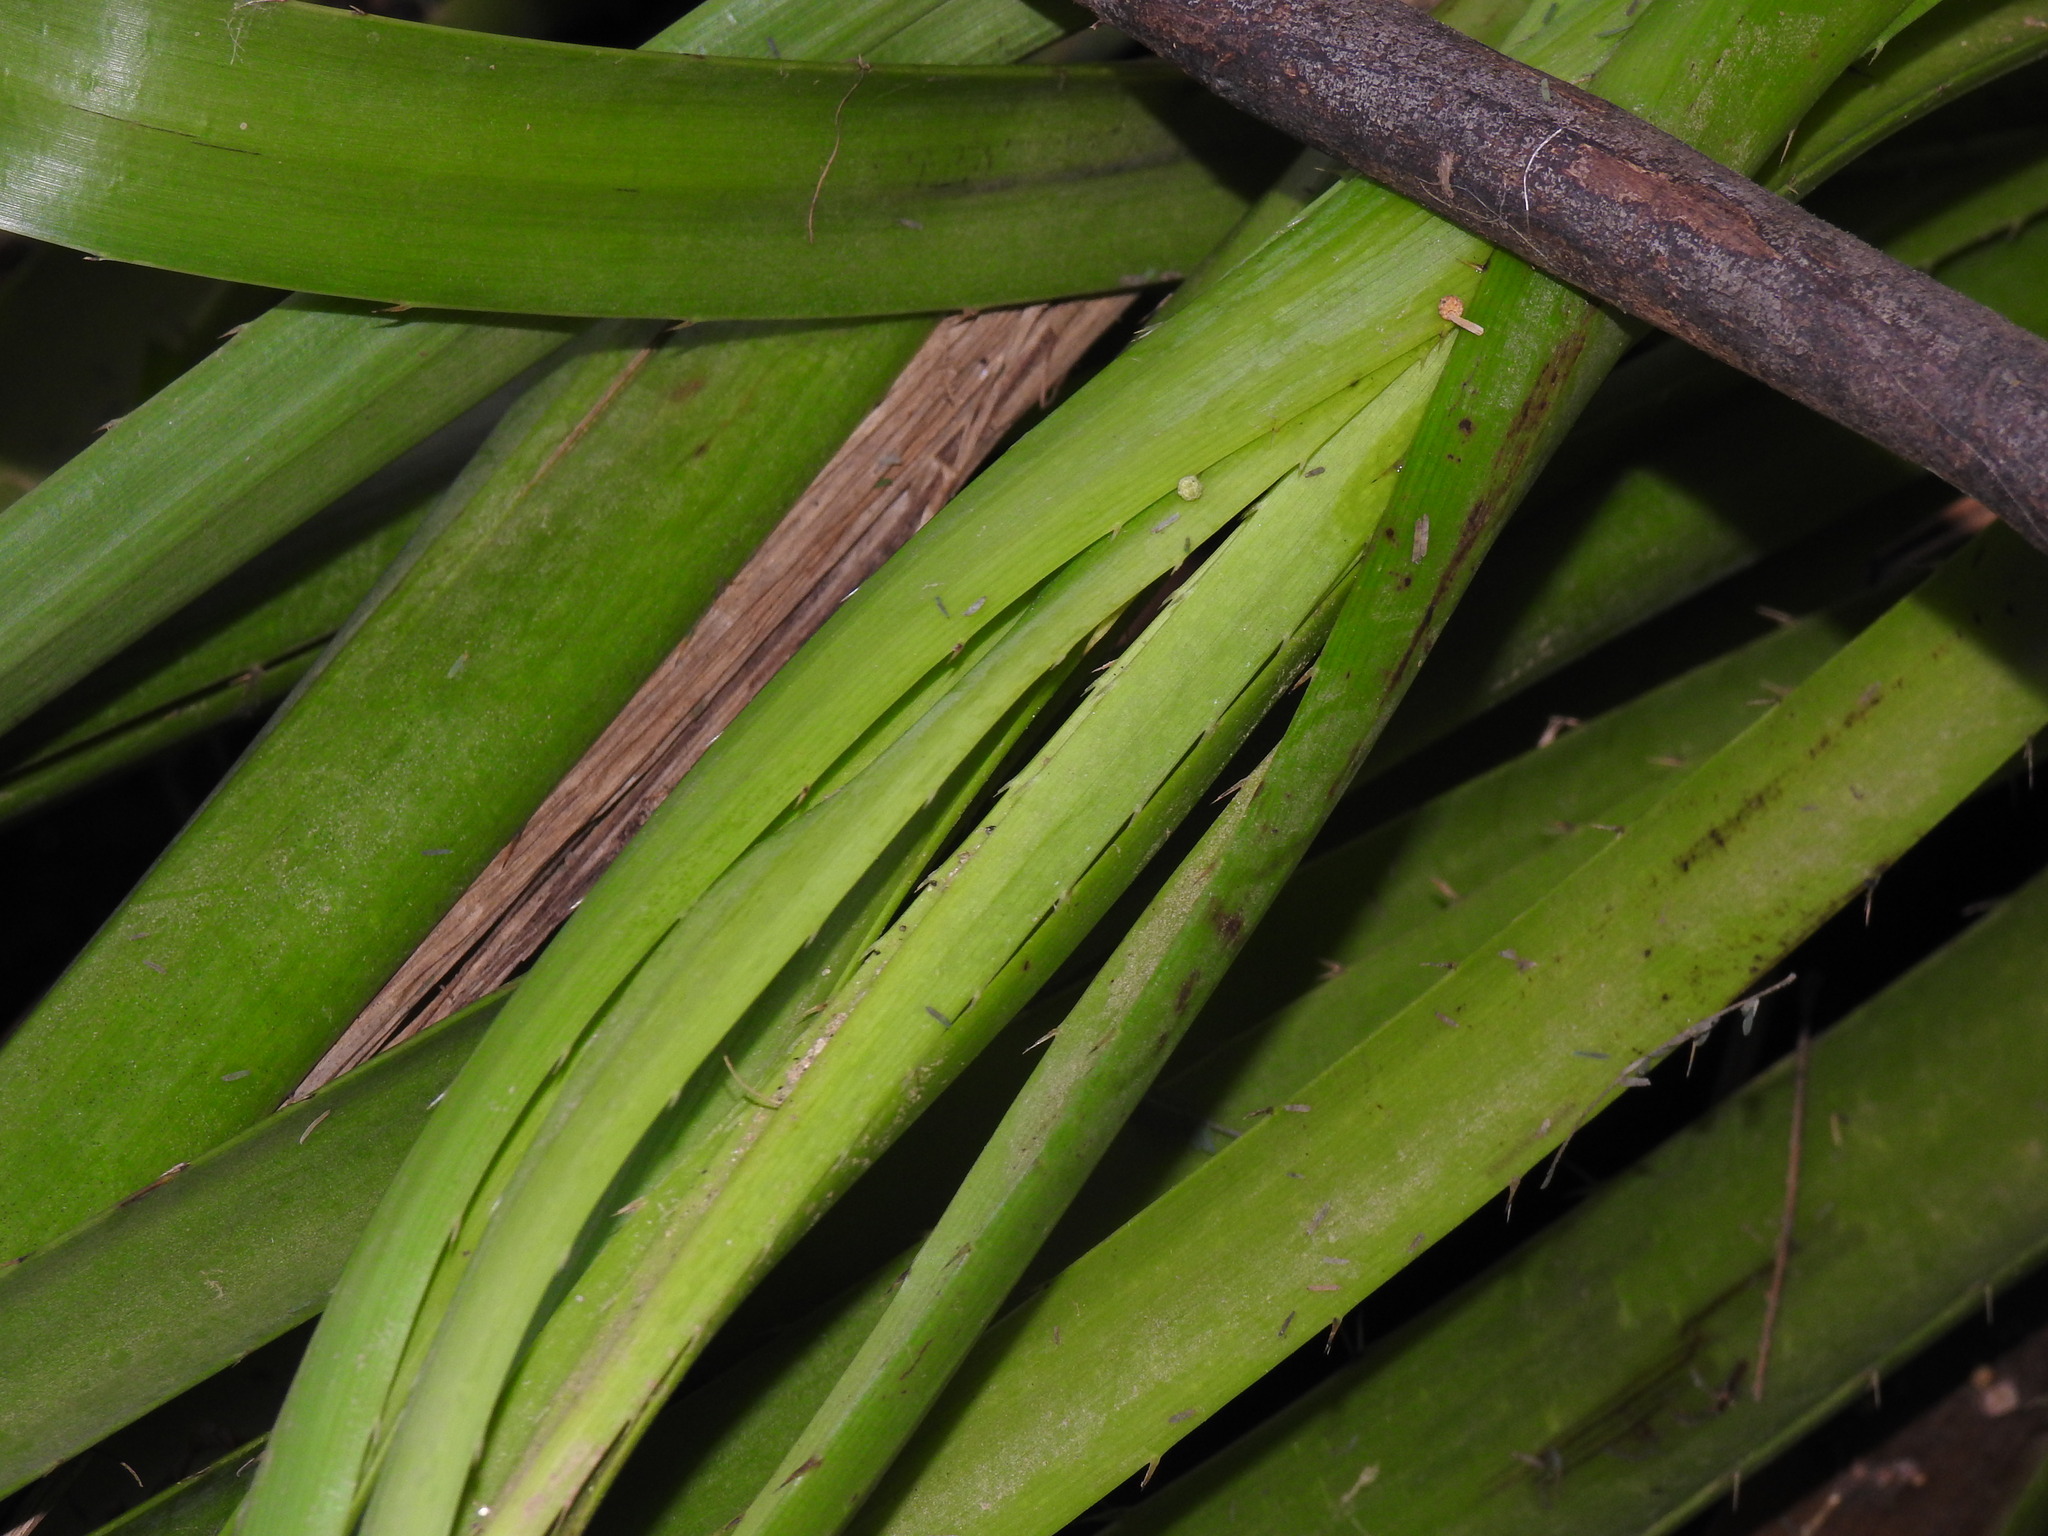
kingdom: Plantae
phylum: Tracheophyta
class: Magnoliopsida
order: Apiales
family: Apiaceae
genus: Eryngium
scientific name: Eryngium pandanifolium
